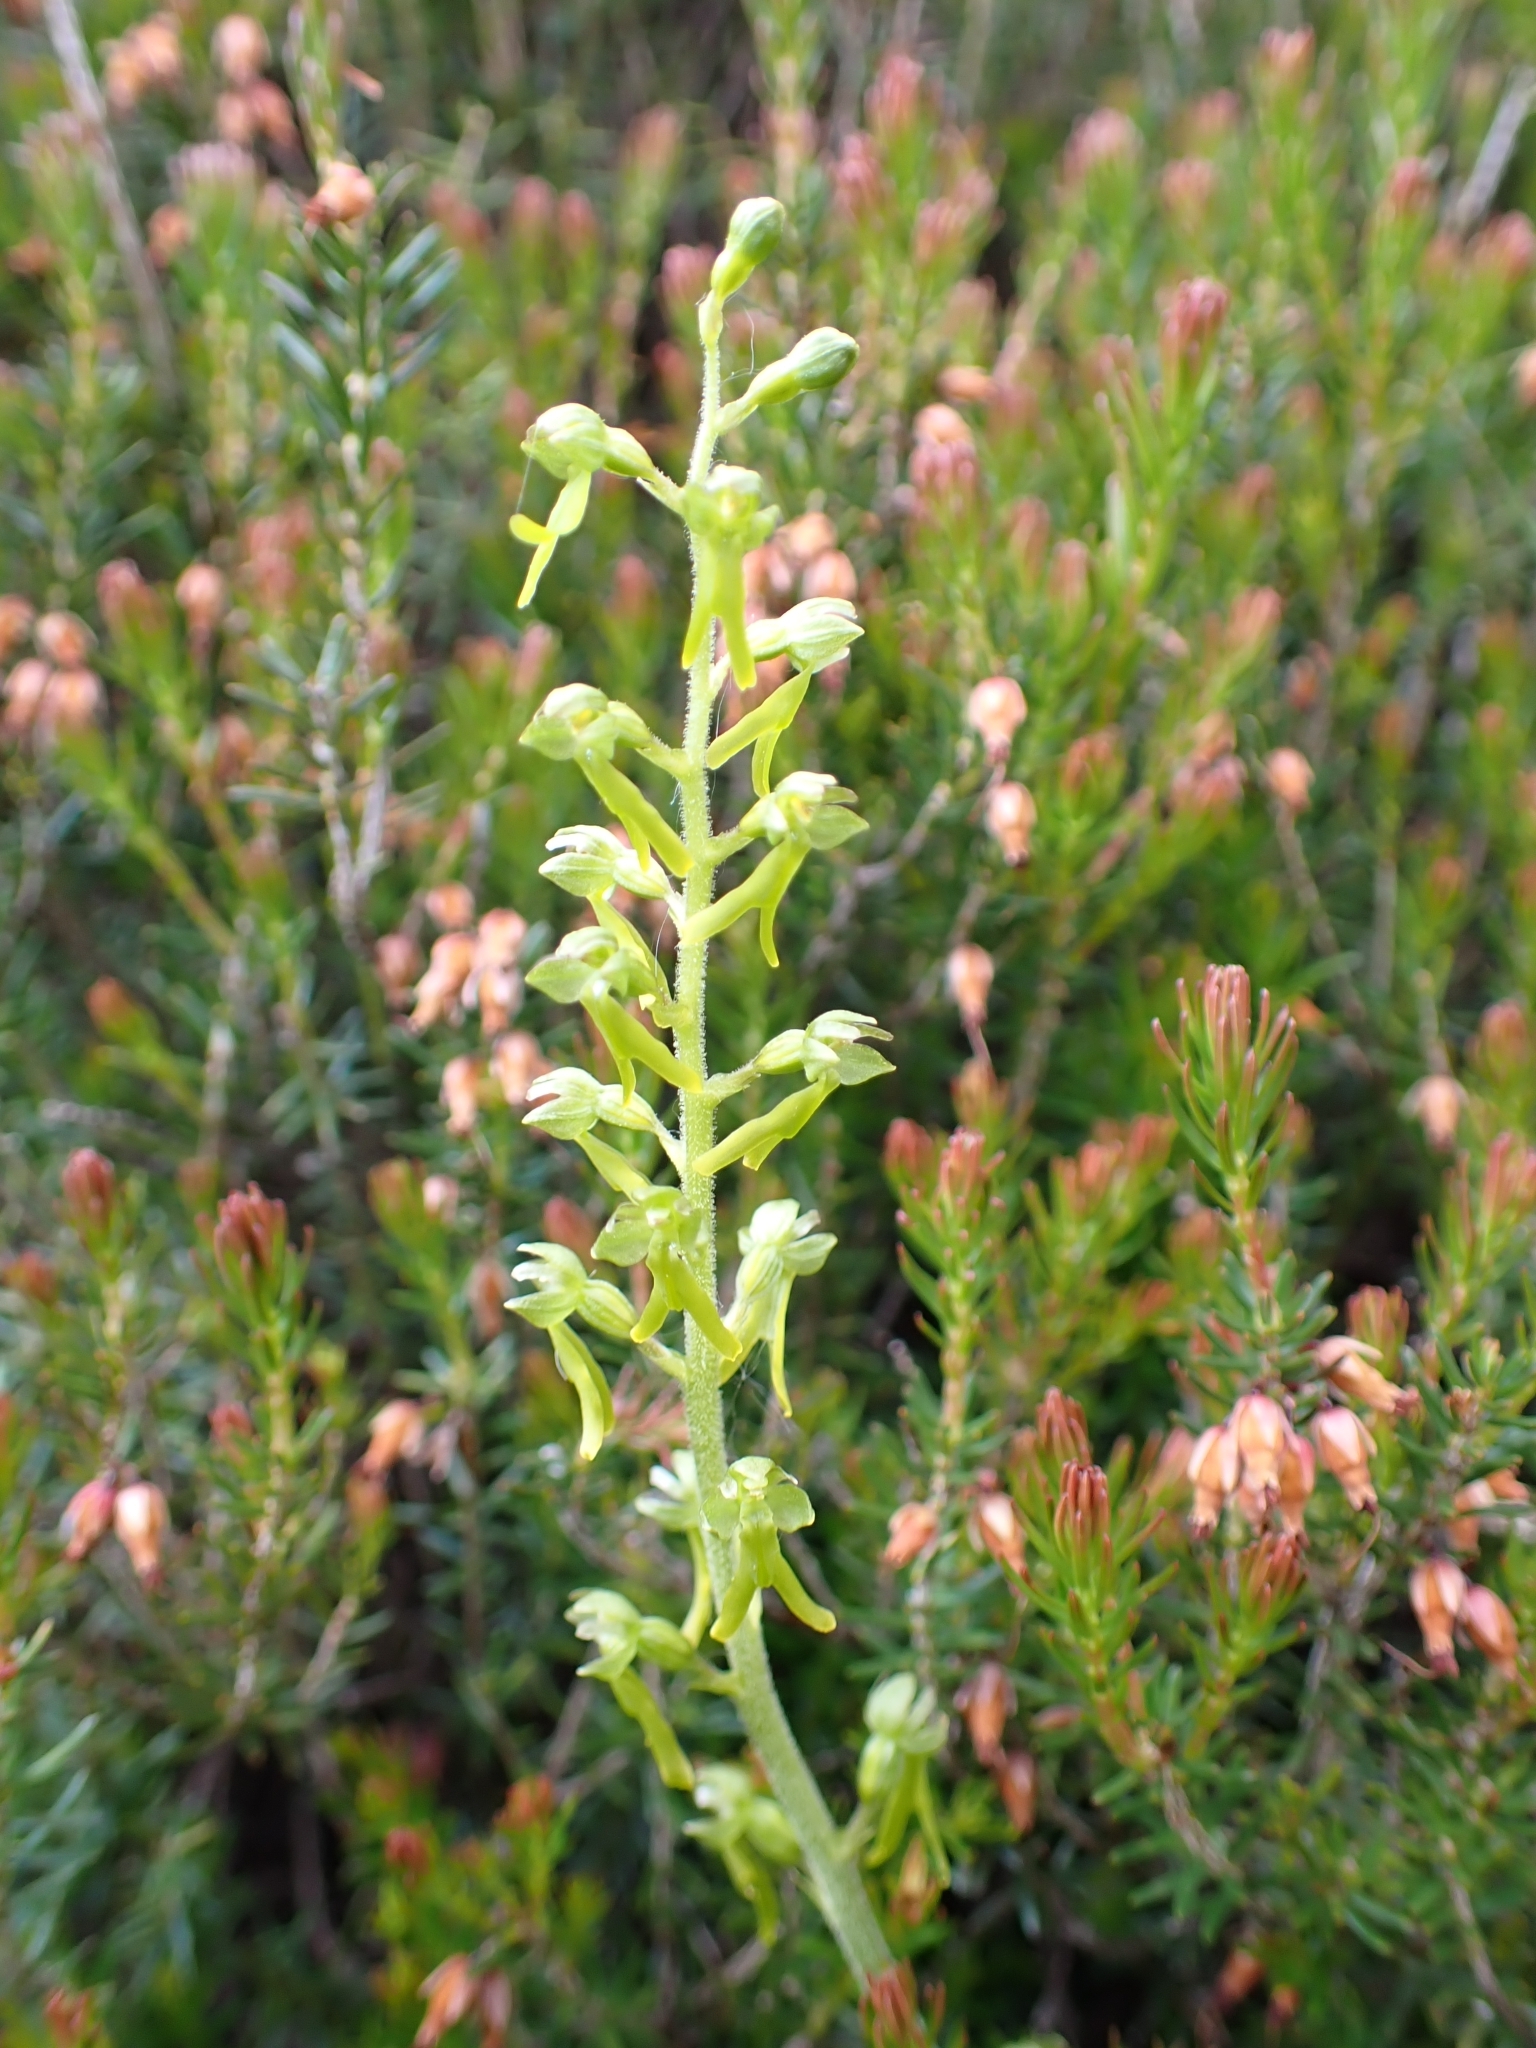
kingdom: Plantae
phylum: Tracheophyta
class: Liliopsida
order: Asparagales
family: Orchidaceae
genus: Neottia
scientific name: Neottia ovata
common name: Common twayblade
